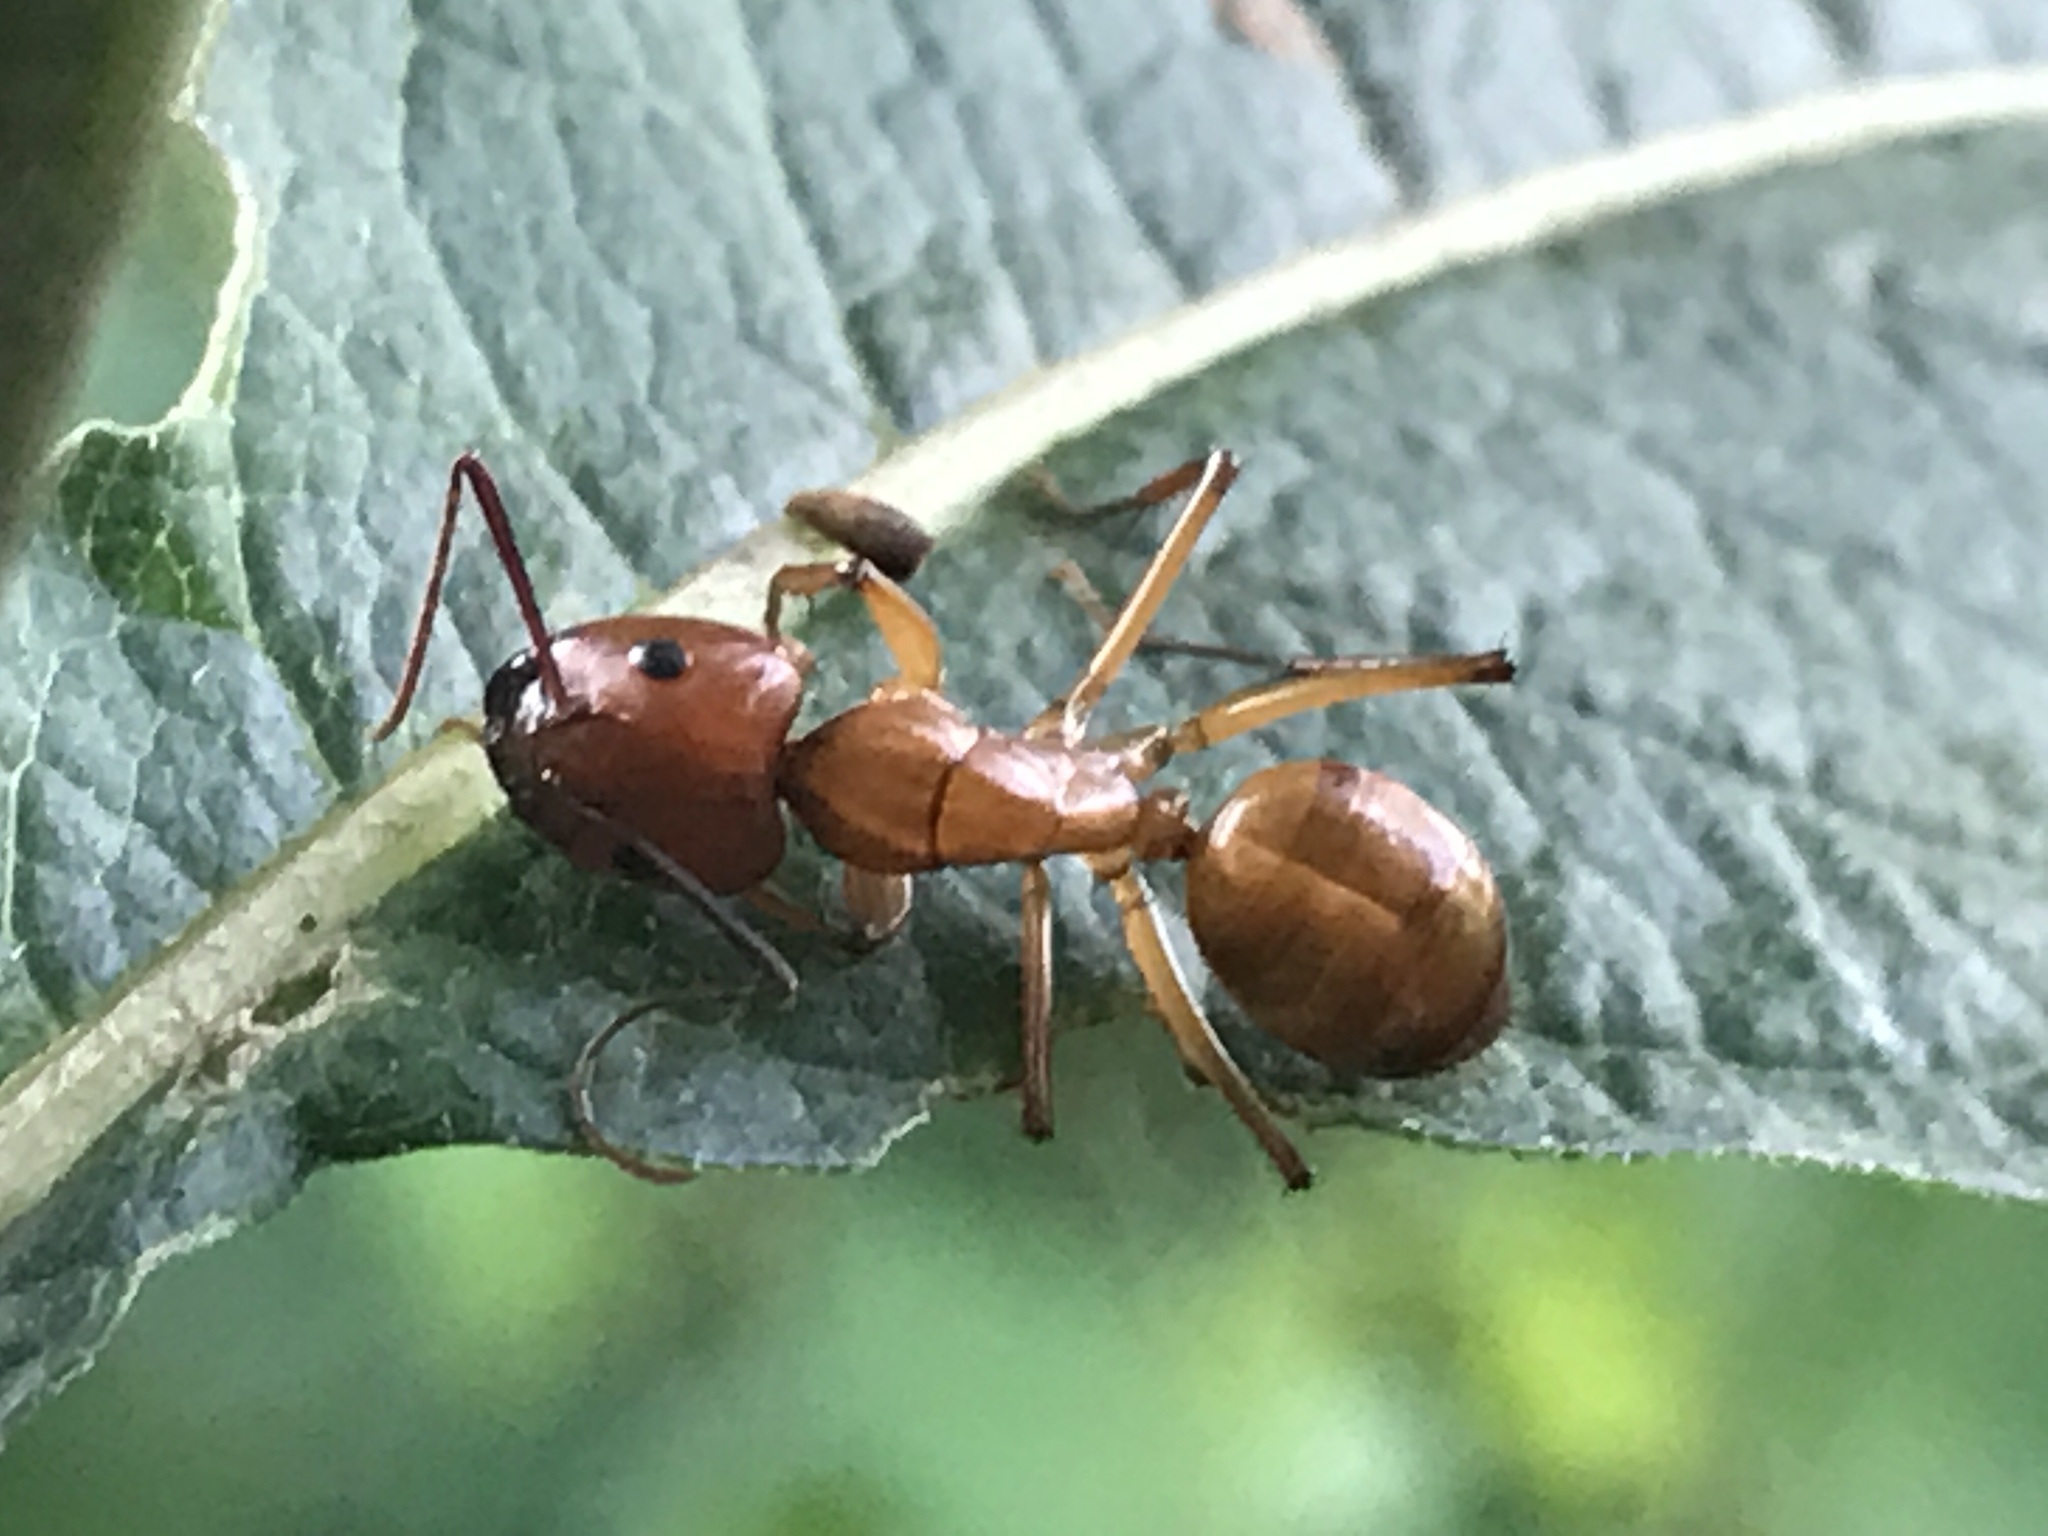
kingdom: Animalia
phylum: Arthropoda
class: Insecta
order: Hymenoptera
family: Formicidae
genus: Camponotus
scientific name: Camponotus castaneus
